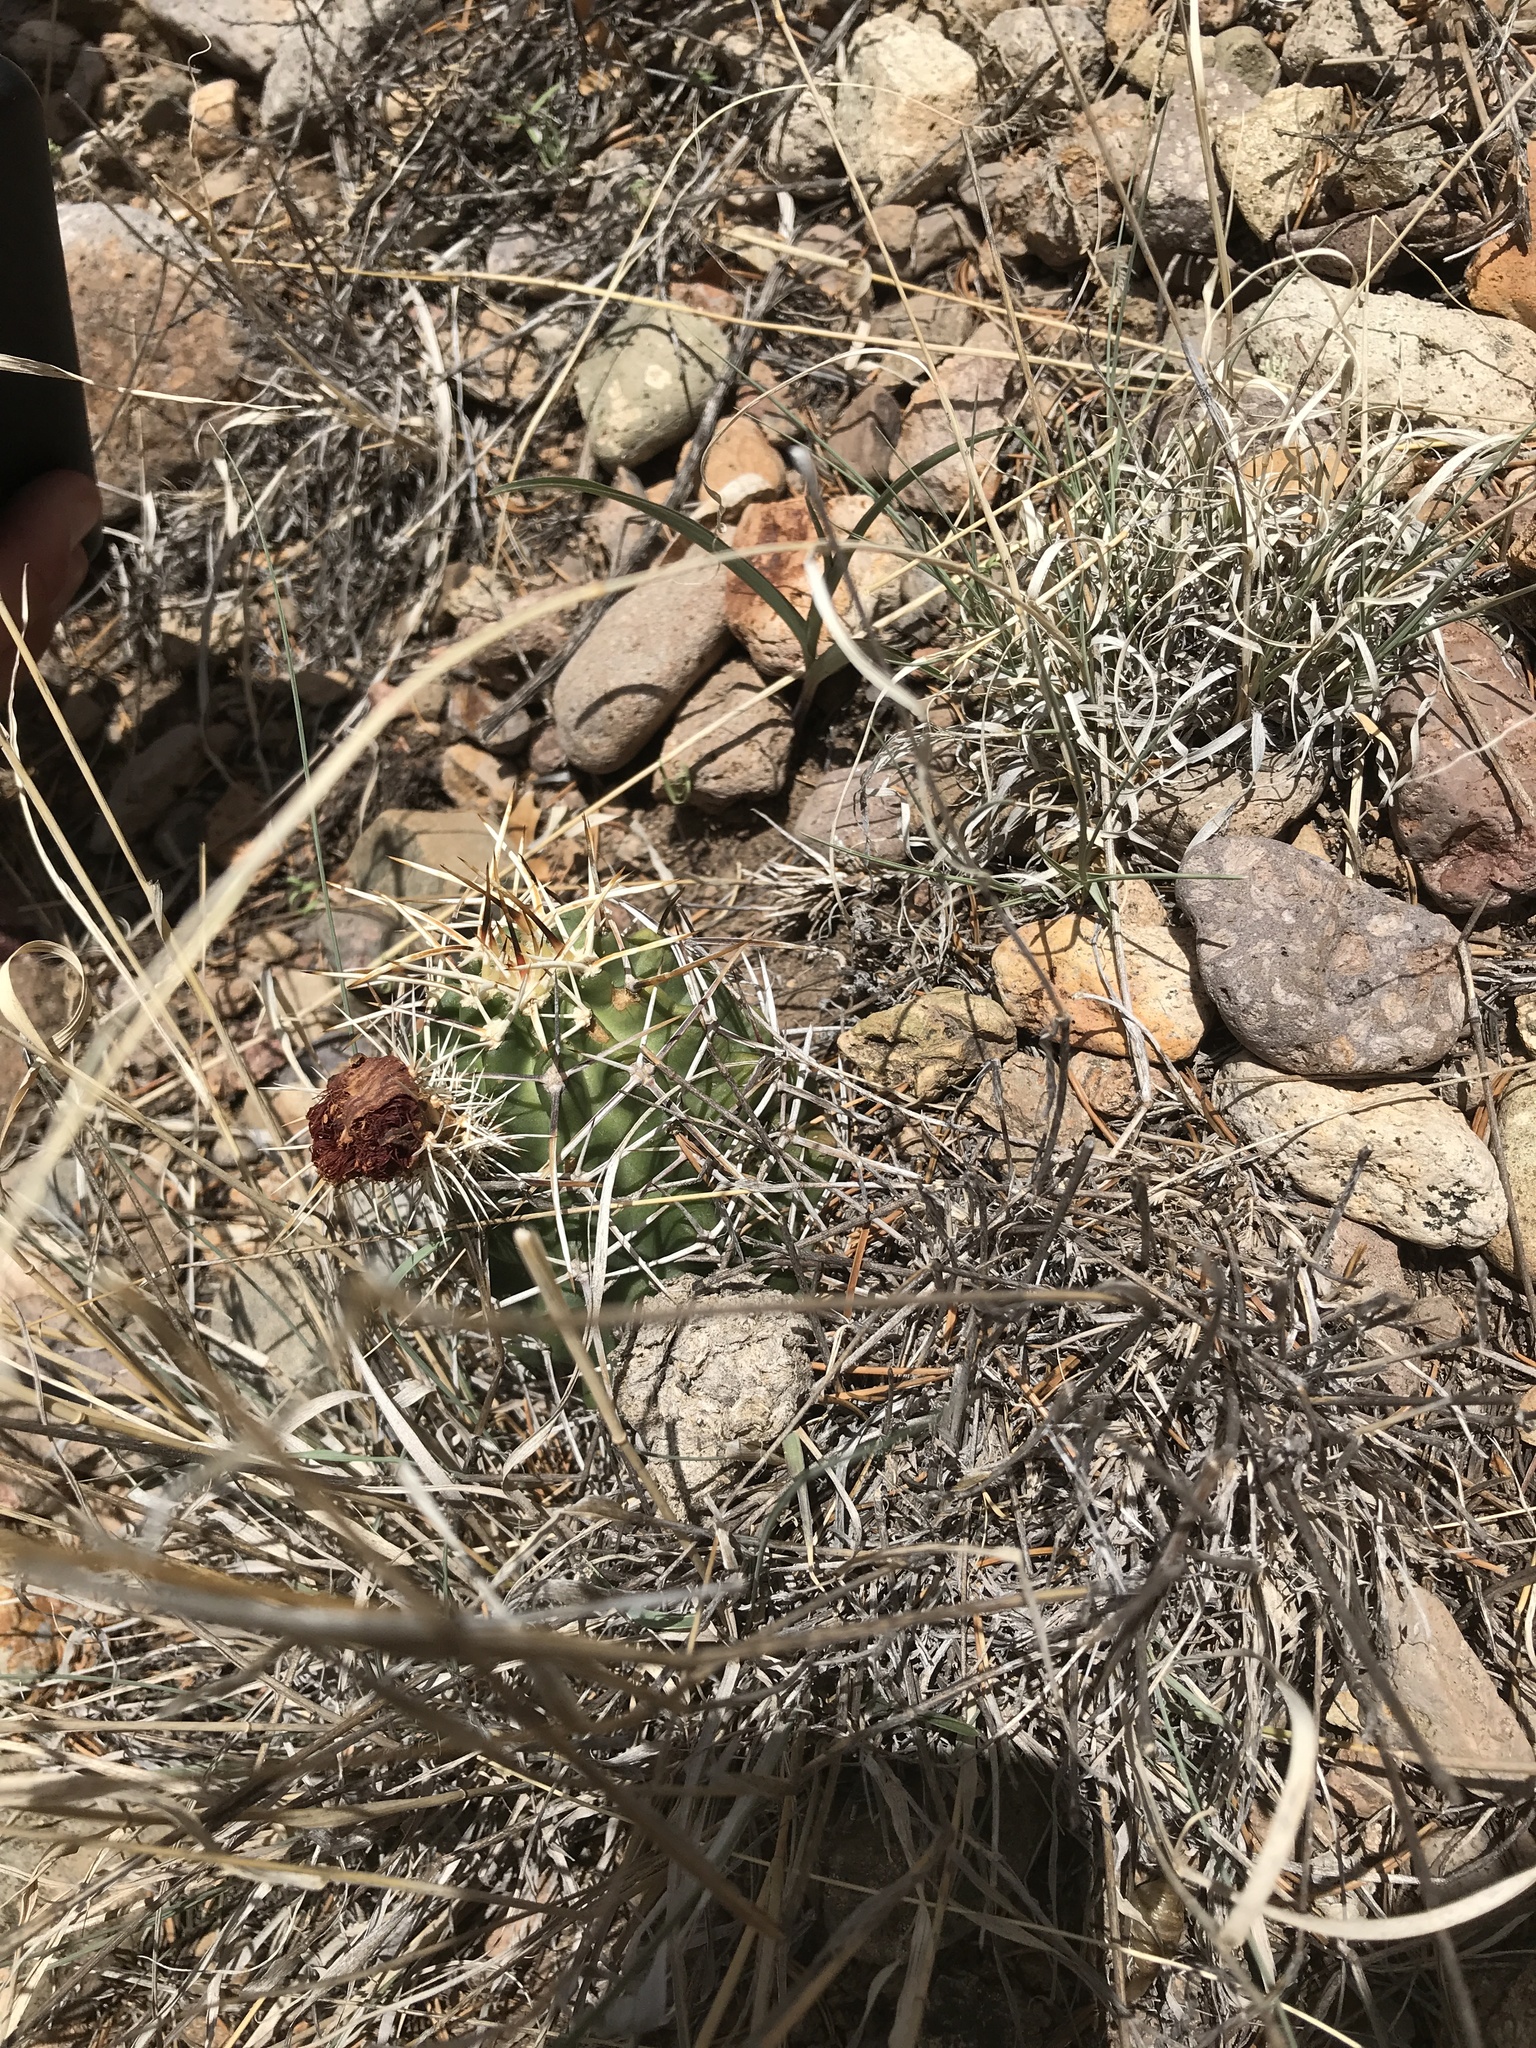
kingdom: Plantae
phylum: Tracheophyta
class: Magnoliopsida
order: Caryophyllales
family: Cactaceae
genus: Echinocereus
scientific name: Echinocereus fendleri
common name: Fendler's hedgehog cactus
